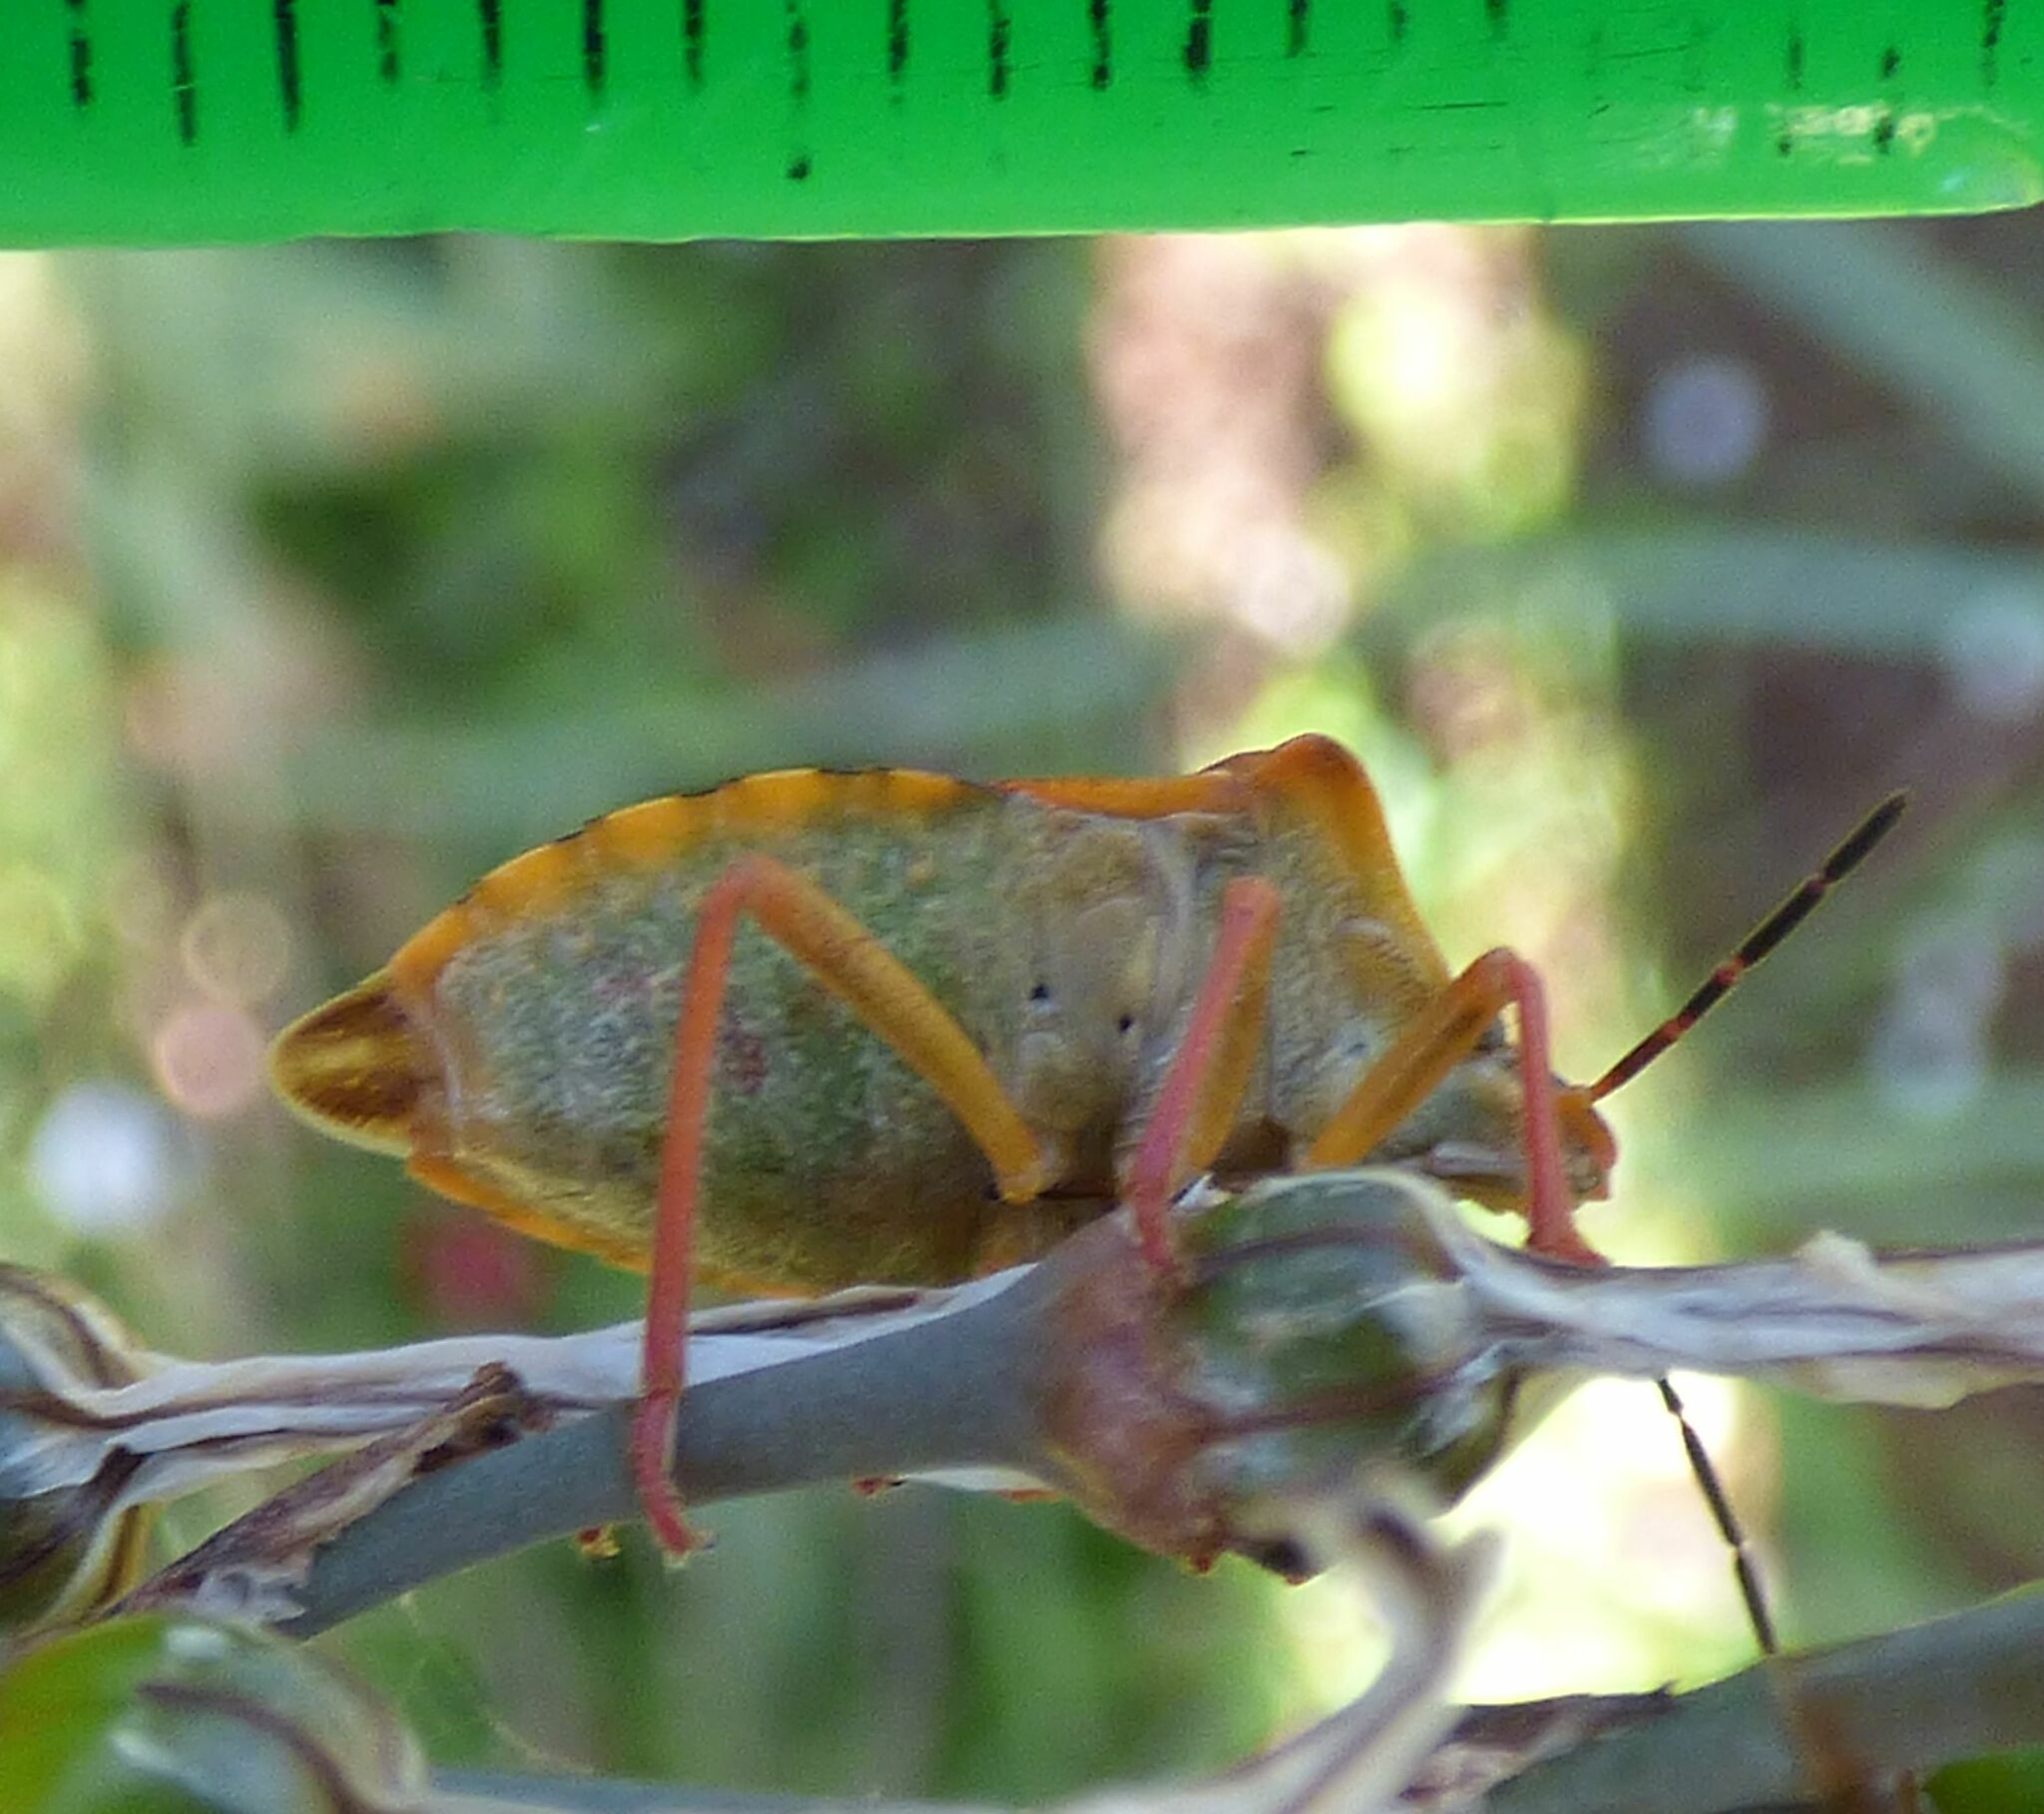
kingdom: Animalia
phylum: Arthropoda
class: Insecta
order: Hemiptera
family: Pentatomidae
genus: Carpocoris
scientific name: Carpocoris purpureipennis
